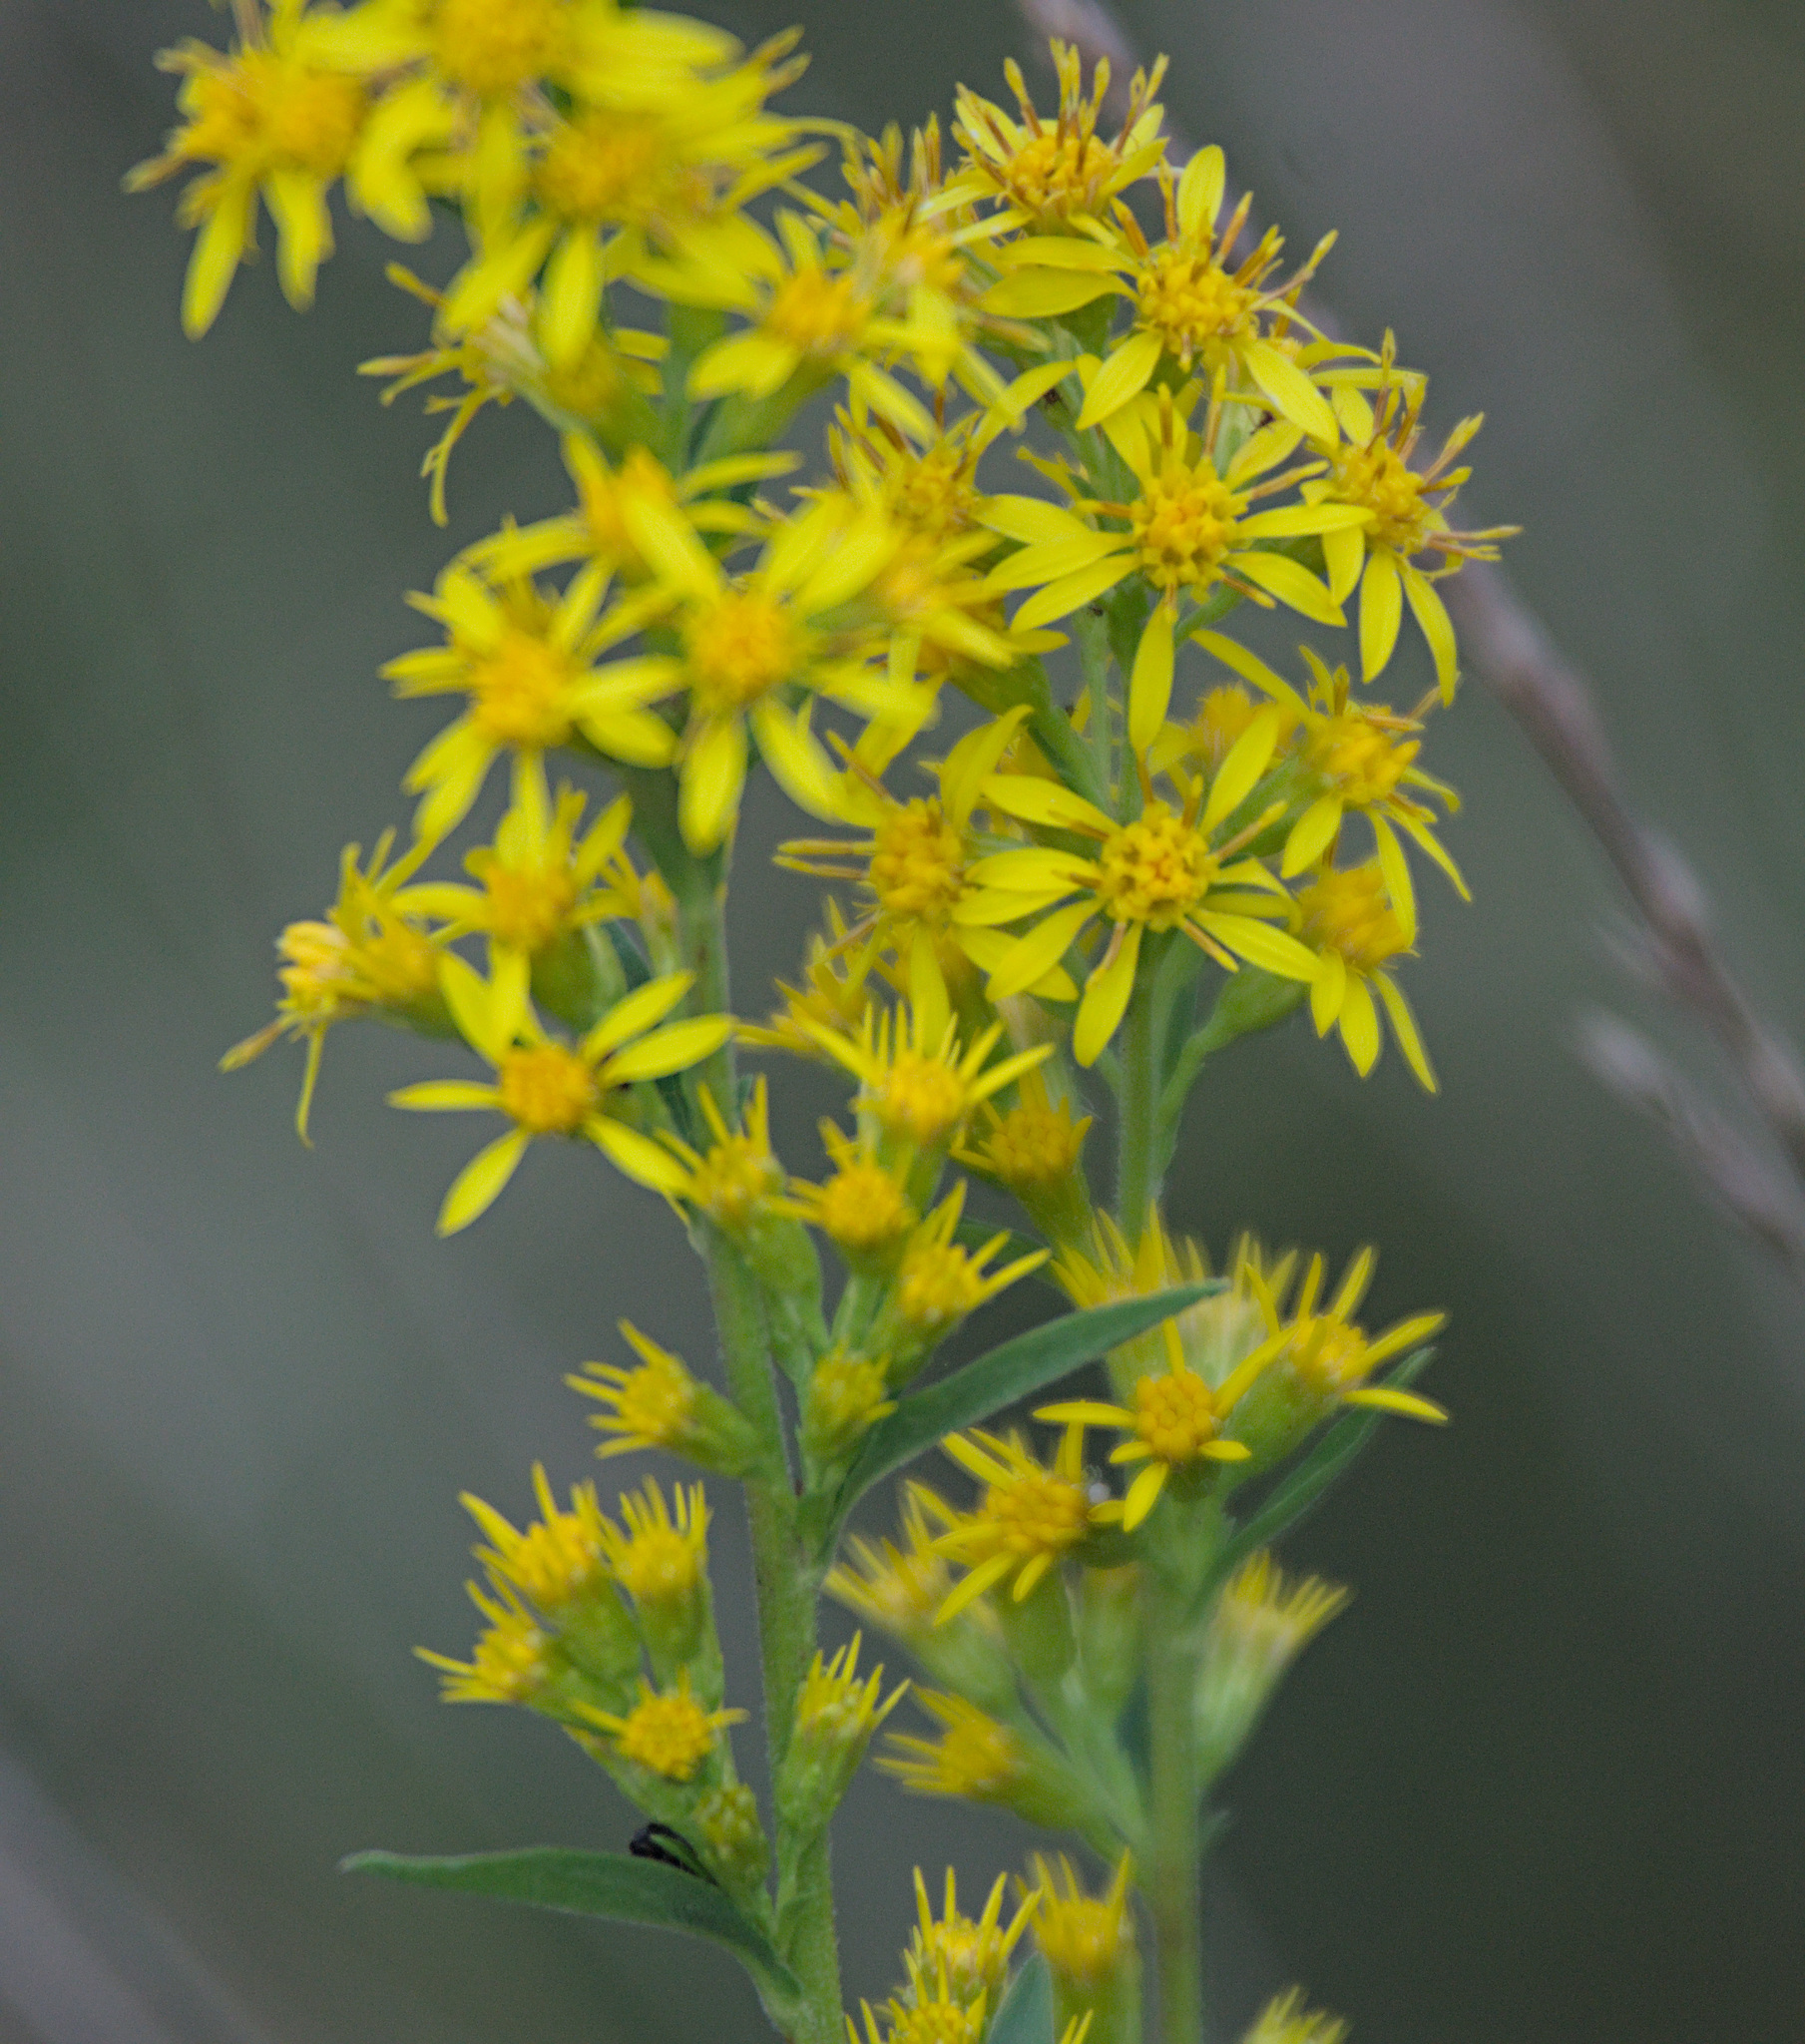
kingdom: Plantae
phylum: Tracheophyta
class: Magnoliopsida
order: Asterales
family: Asteraceae
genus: Solidago
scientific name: Solidago virgaurea
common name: Goldenrod
